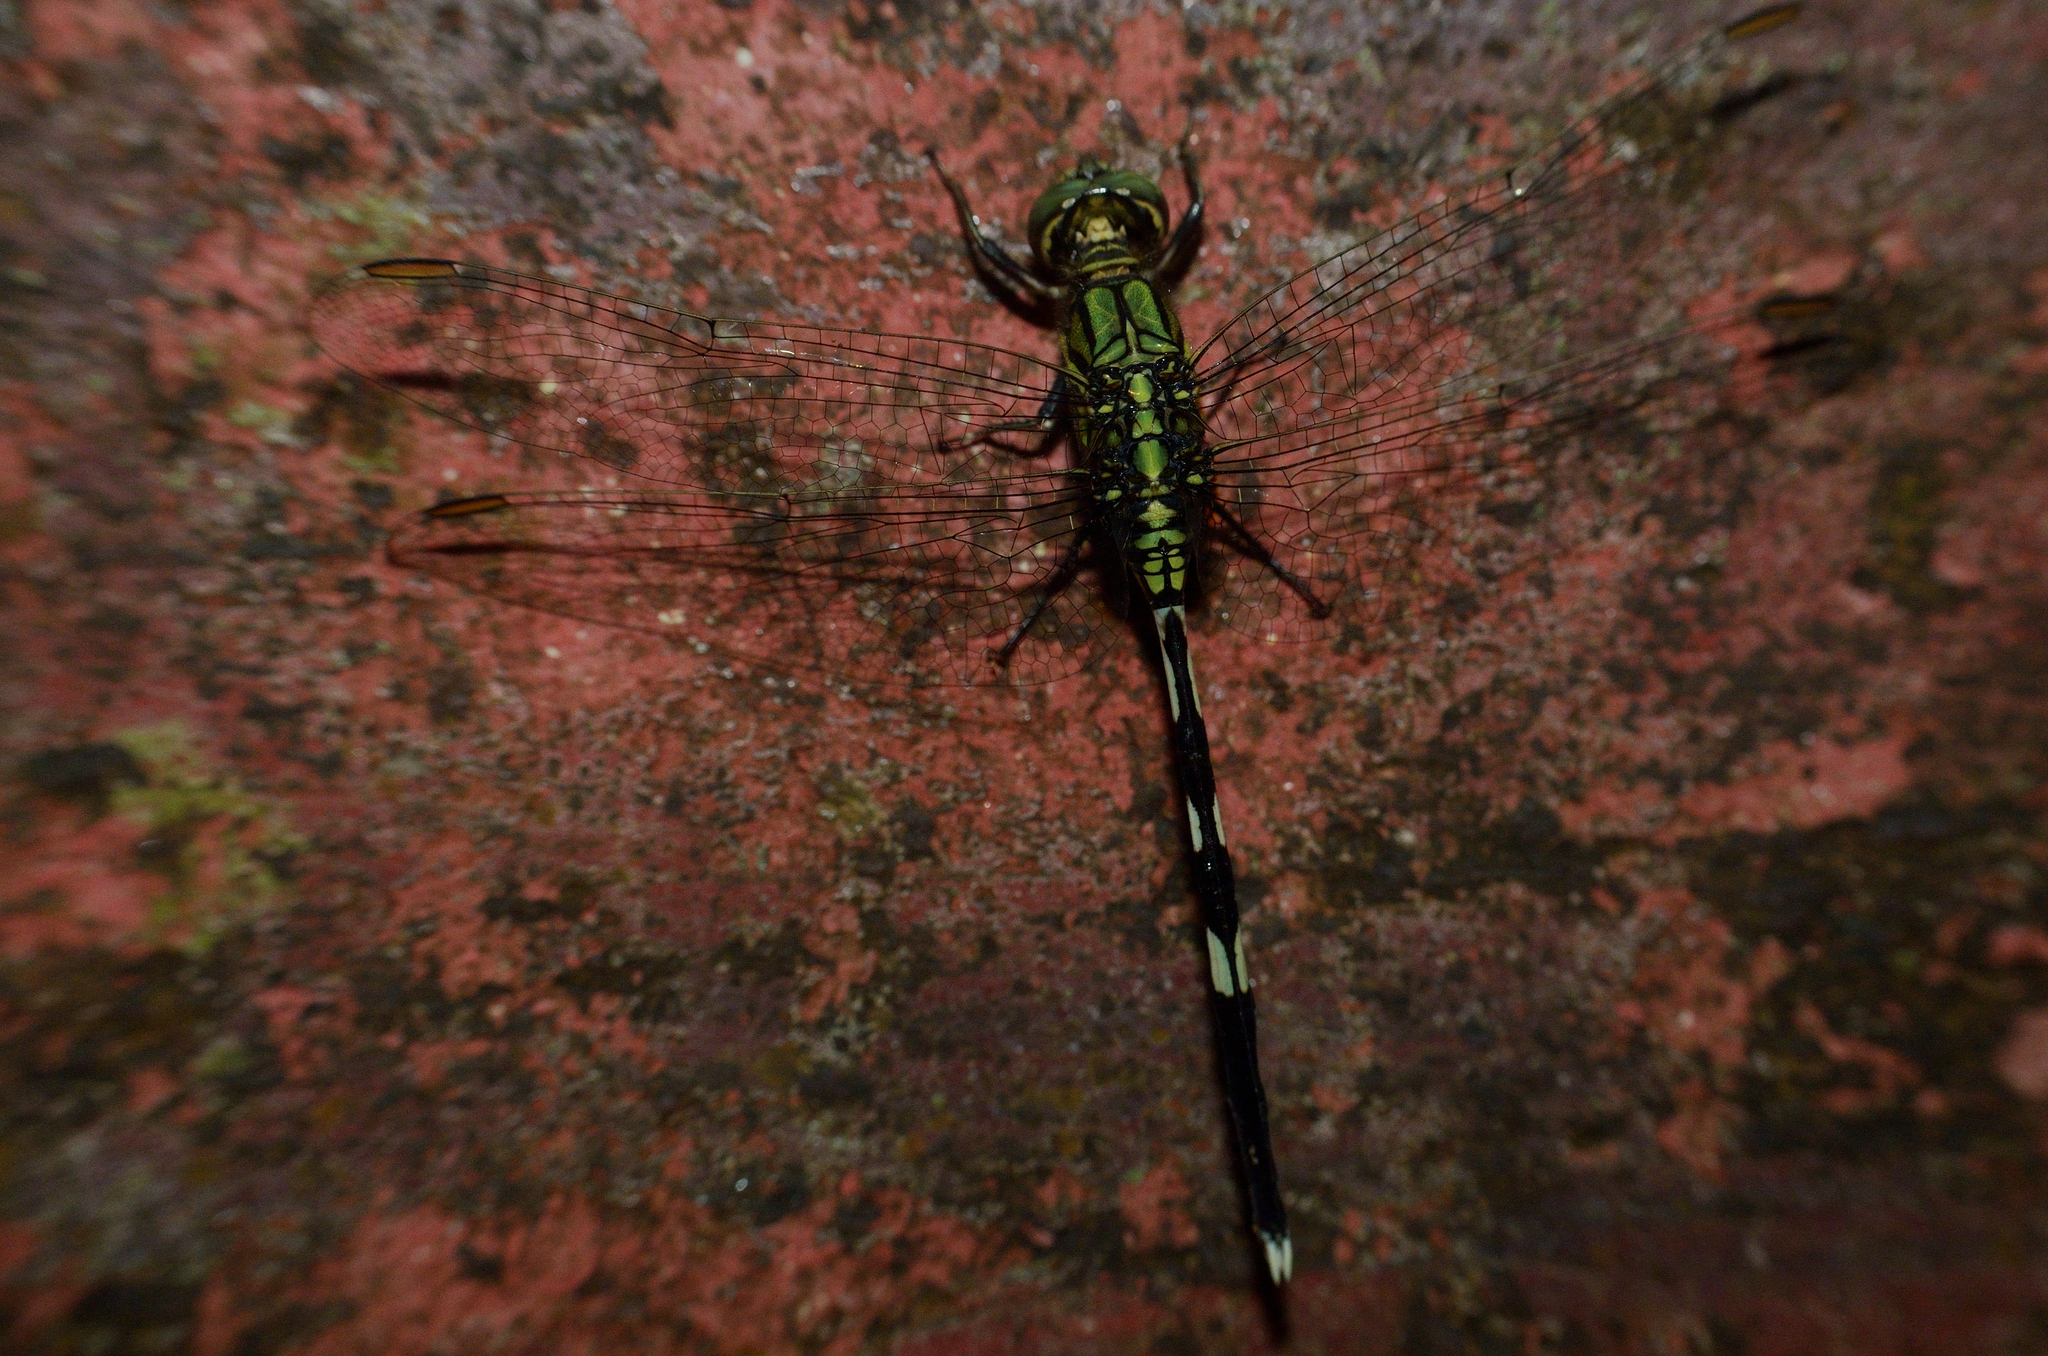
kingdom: Animalia
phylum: Arthropoda
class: Insecta
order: Odonata
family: Libellulidae
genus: Orthetrum
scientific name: Orthetrum sabina
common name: Slender skimmer
